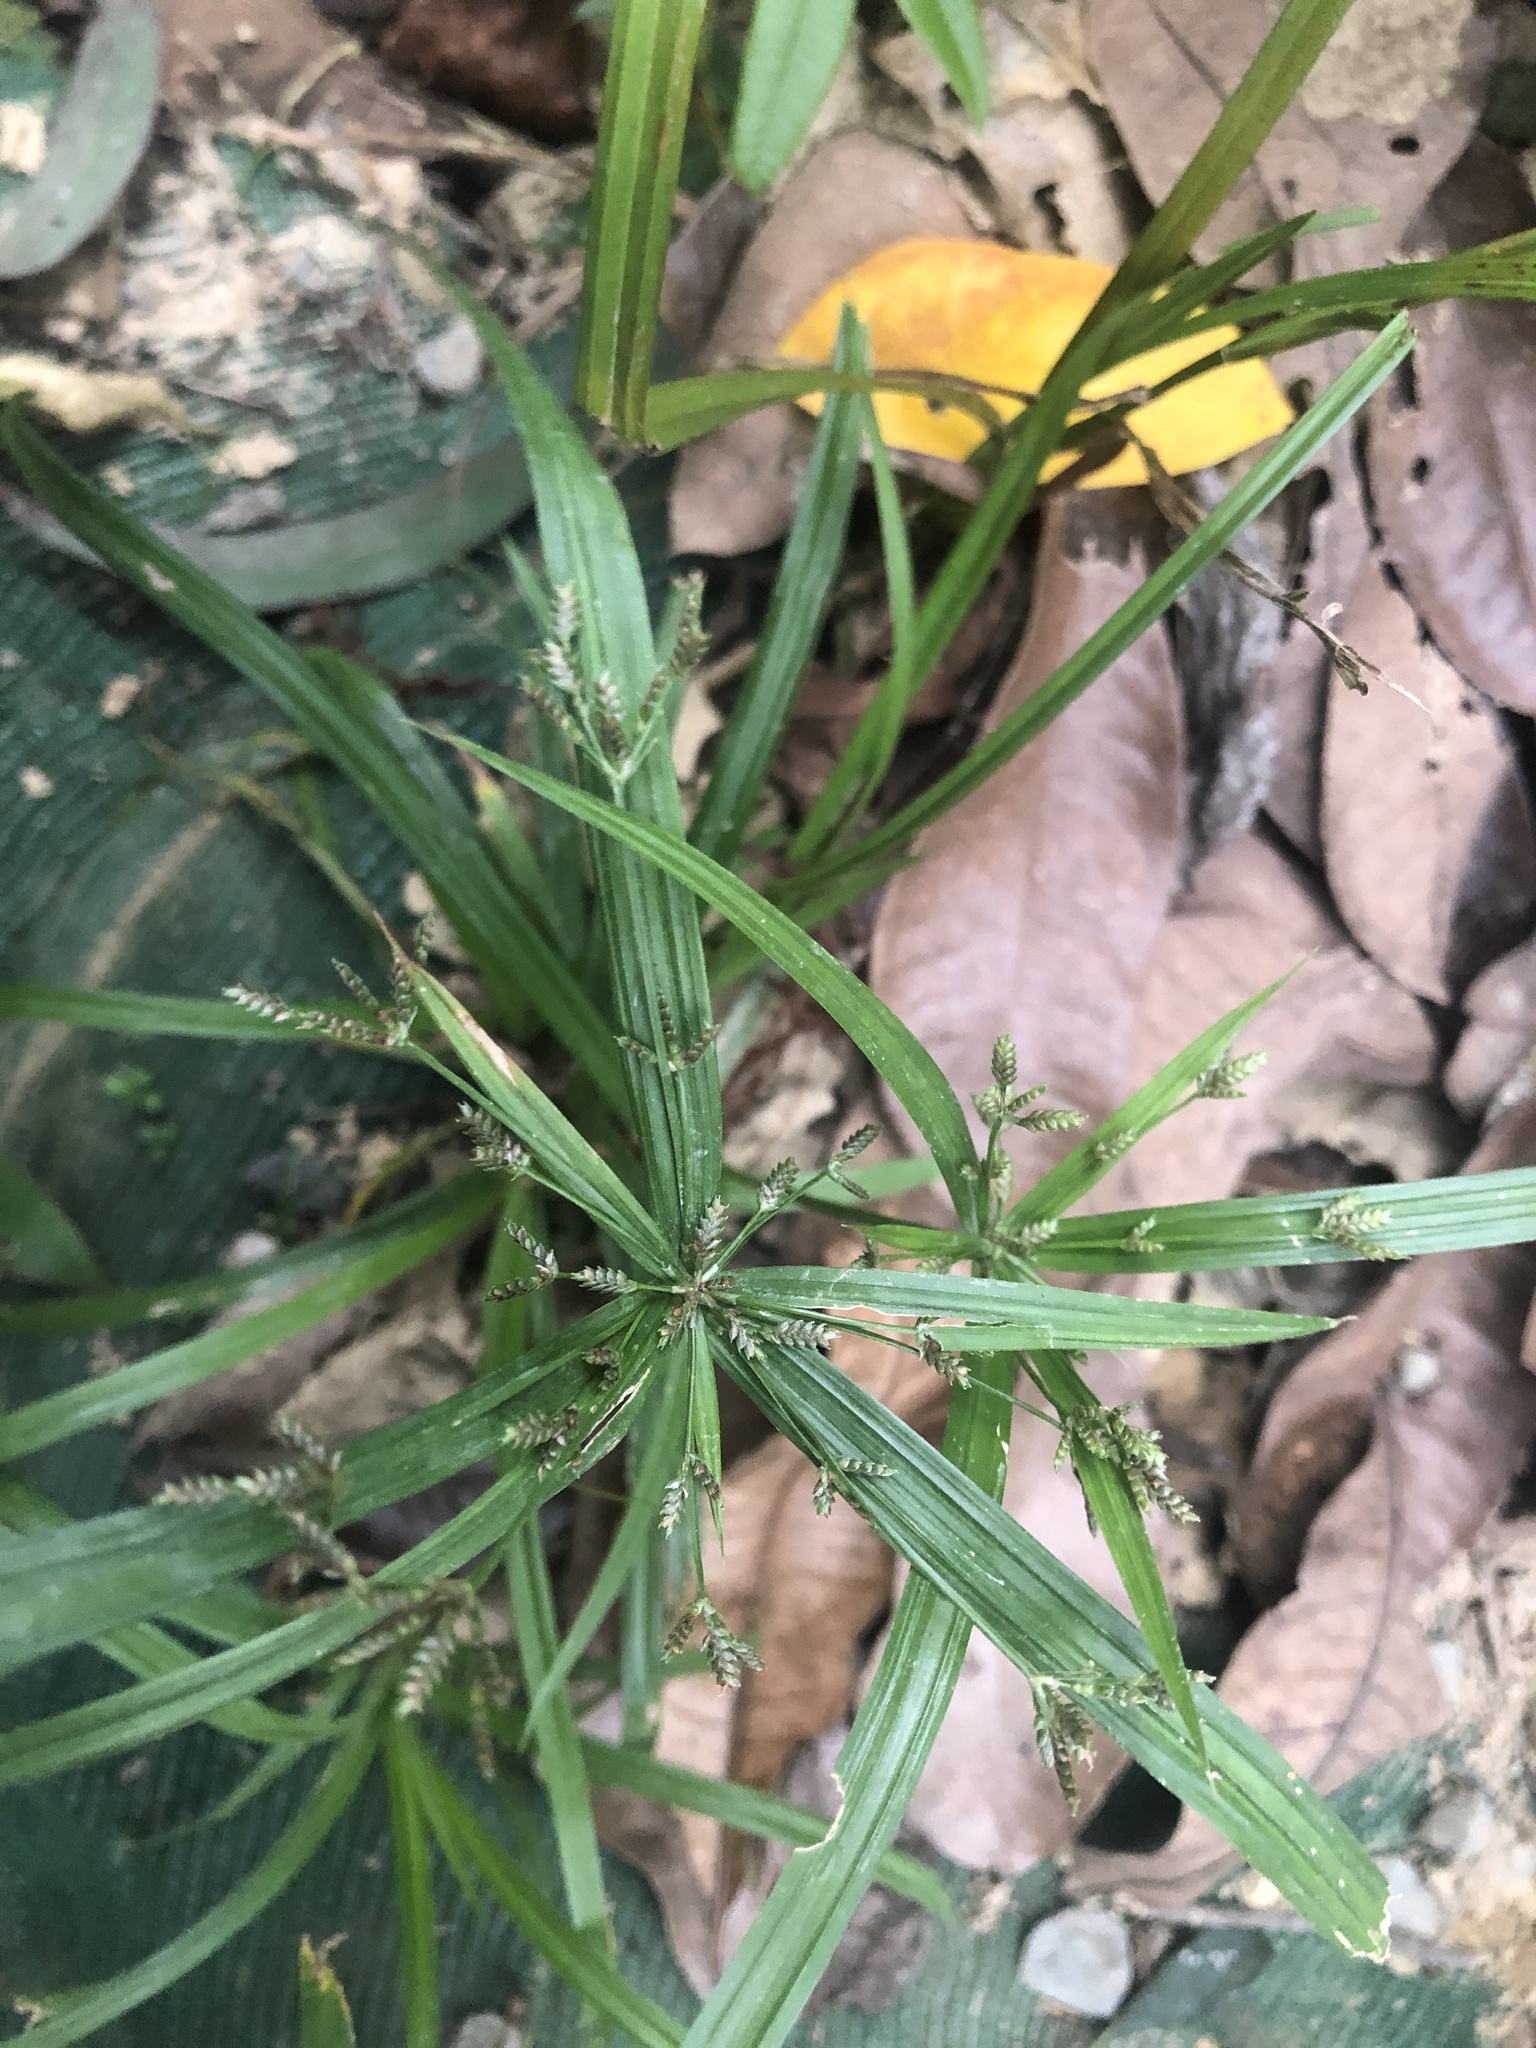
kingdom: Plantae
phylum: Tracheophyta
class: Liliopsida
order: Poales
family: Cyperaceae
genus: Cyperus
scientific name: Cyperus diffusus
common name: Dwarf umbrella grass
